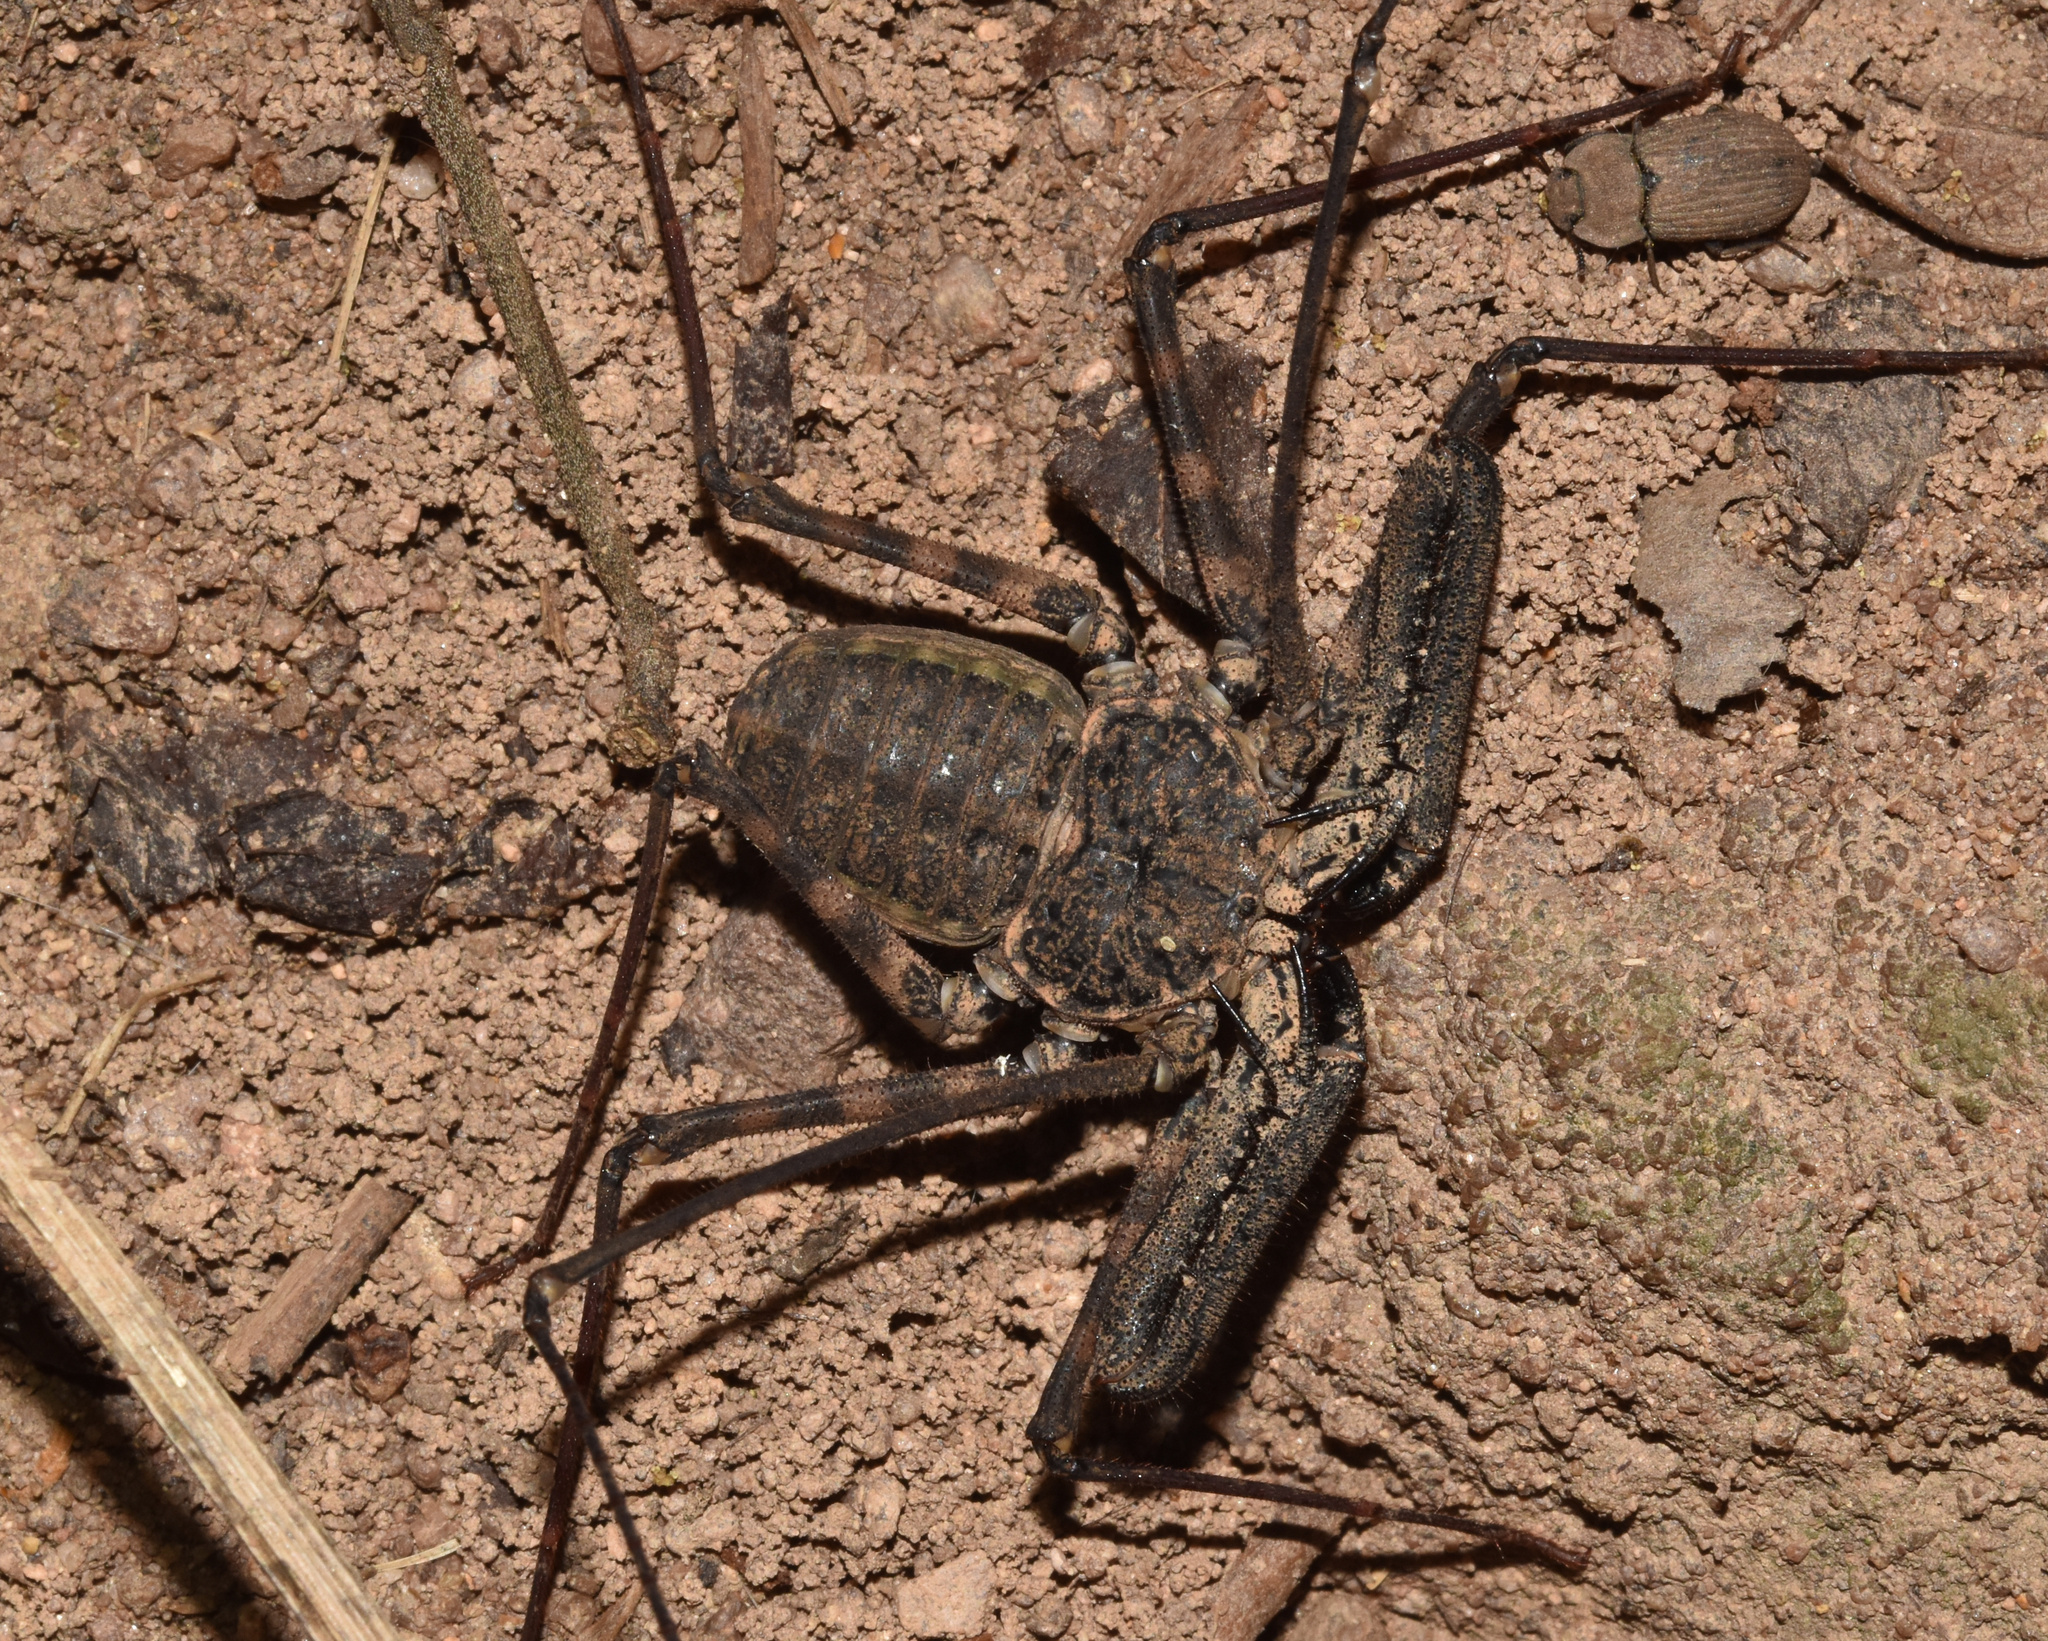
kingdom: Animalia
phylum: Arthropoda
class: Arachnida
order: Amblypygi
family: Phrynichidae
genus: Damon
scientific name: Damon annulatipes
